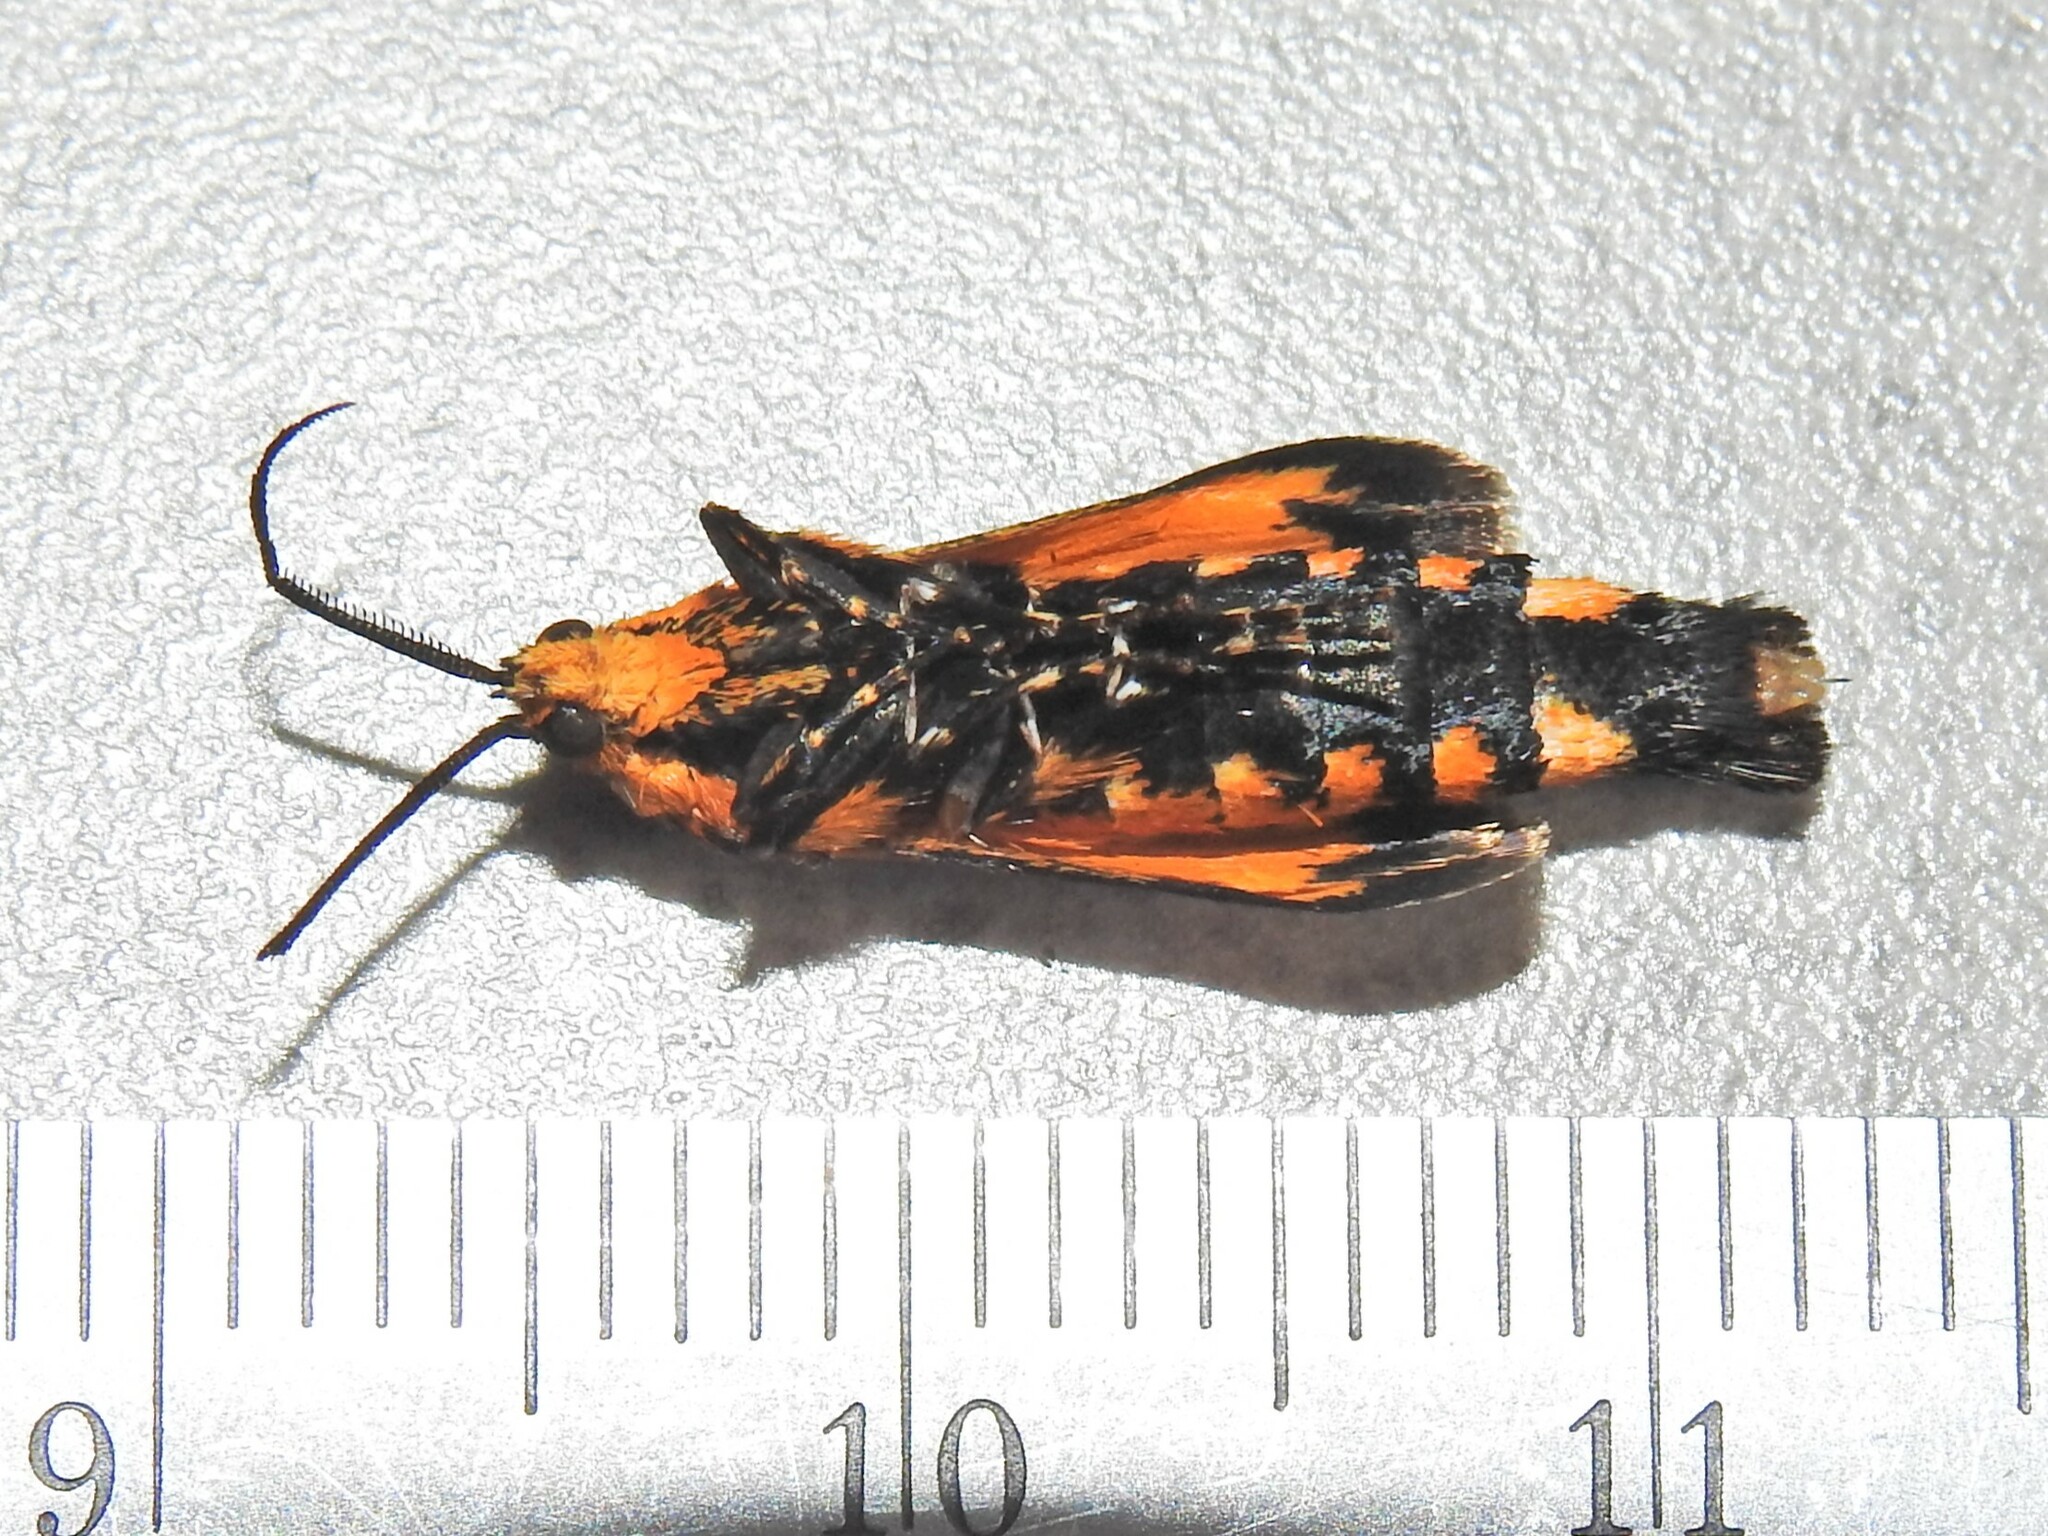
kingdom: Animalia
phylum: Arthropoda
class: Insecta
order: Lepidoptera
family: Brachodidae
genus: Miscera
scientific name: Miscera homotona
